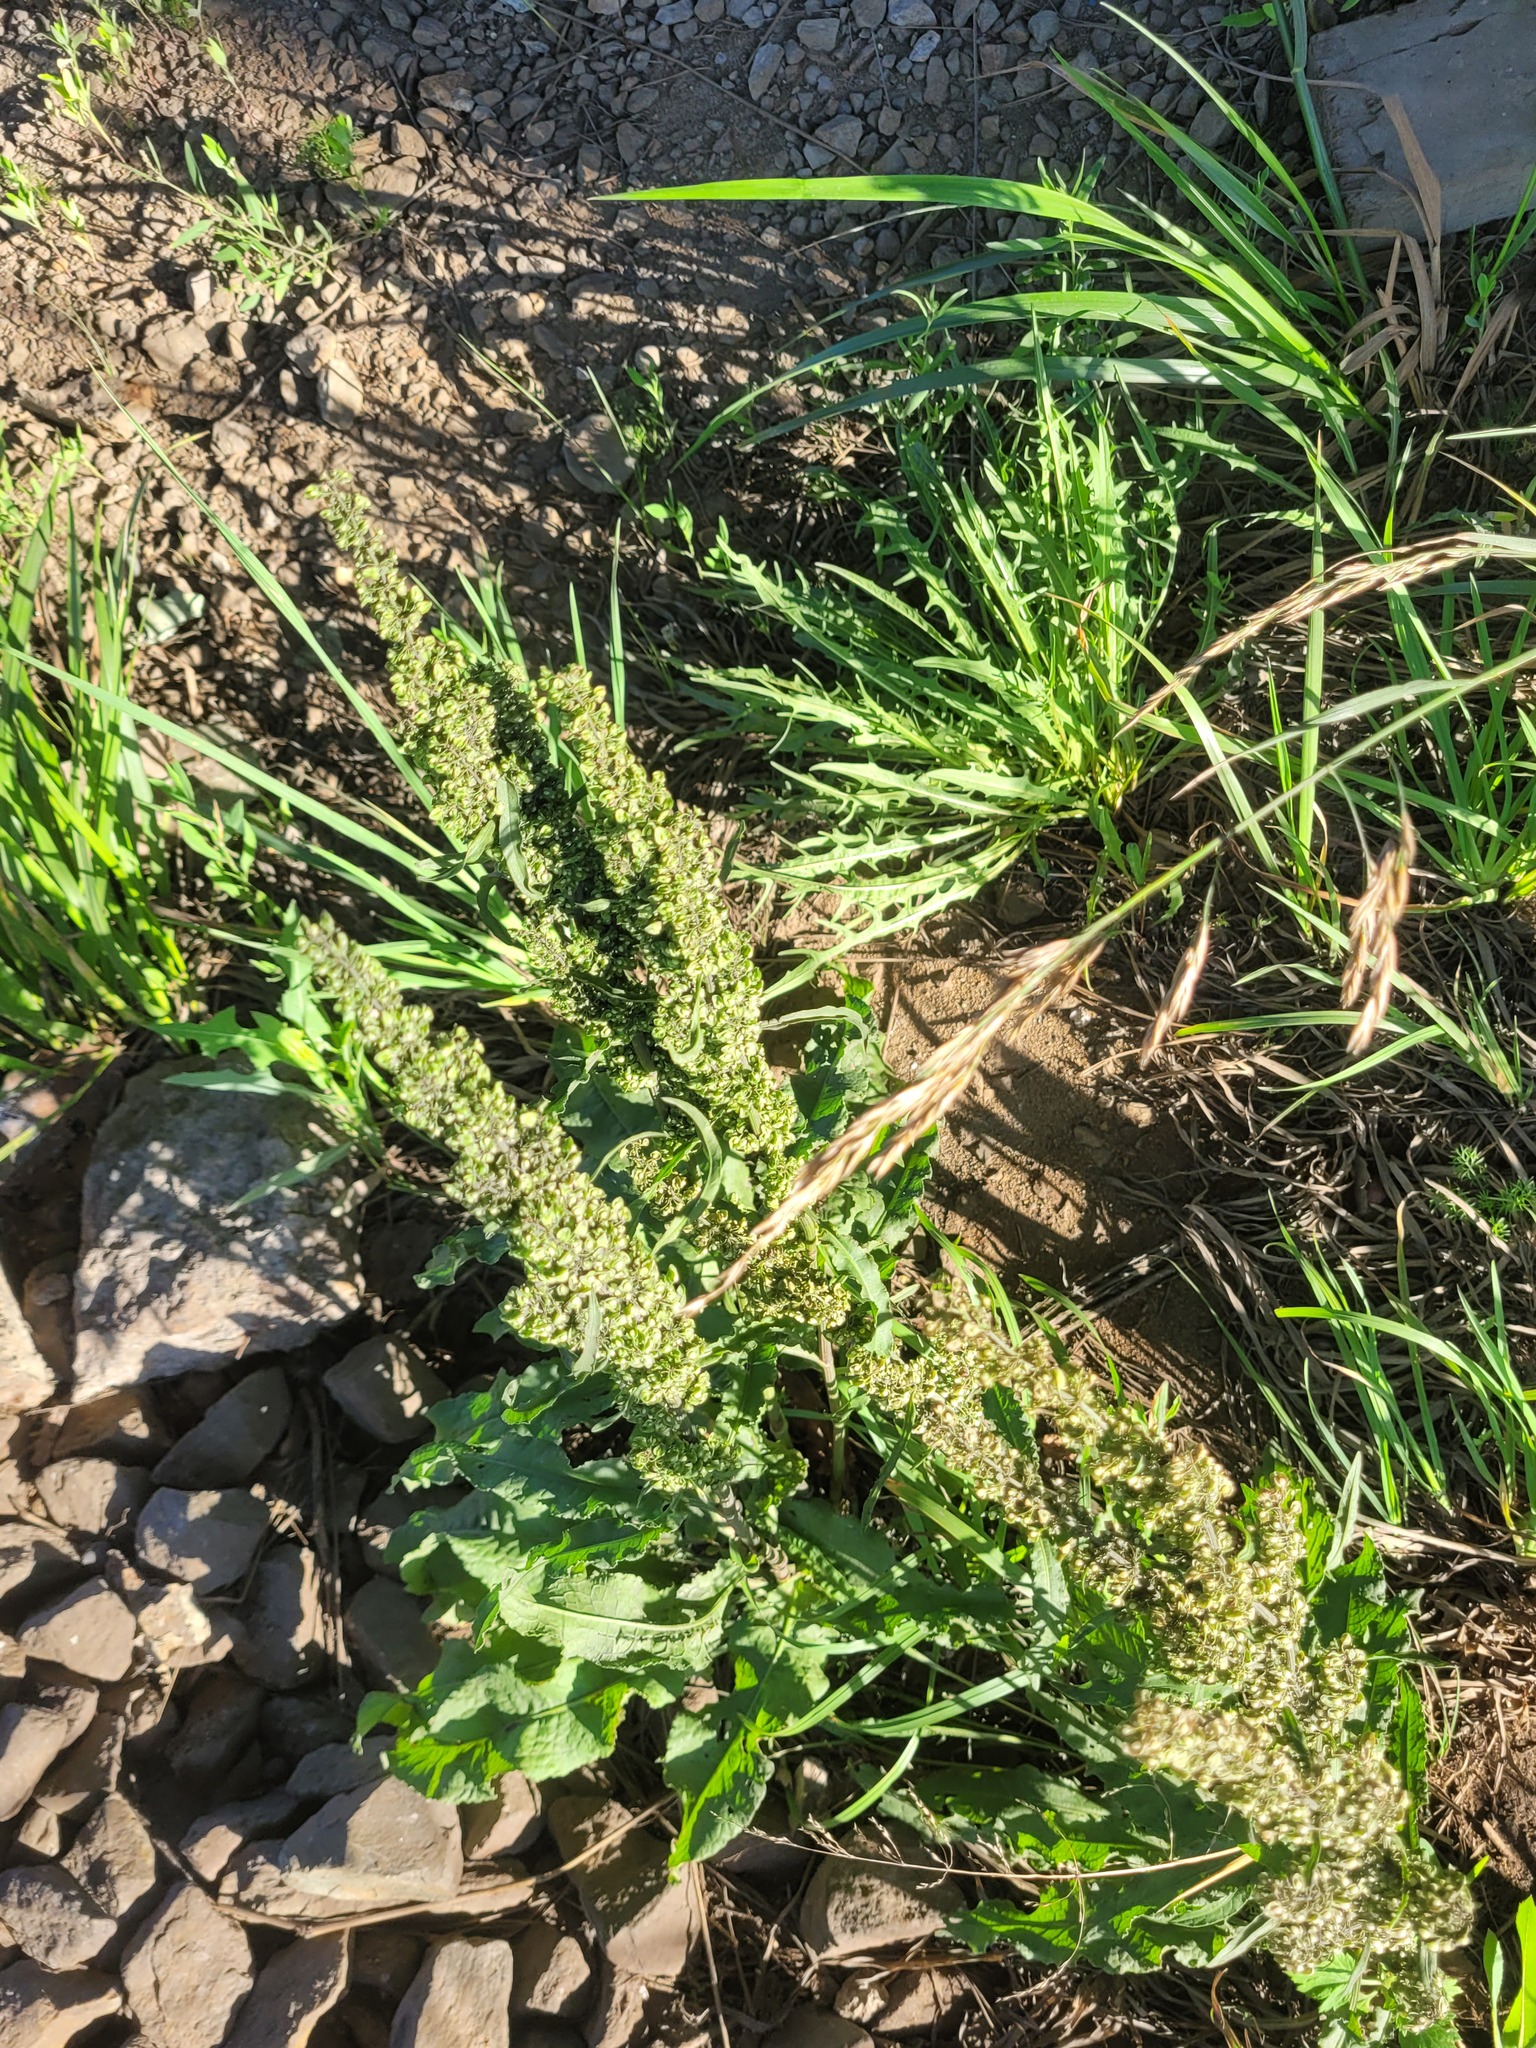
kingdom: Plantae
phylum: Tracheophyta
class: Magnoliopsida
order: Caryophyllales
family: Polygonaceae
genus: Rumex
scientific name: Rumex crispus
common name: Curled dock
